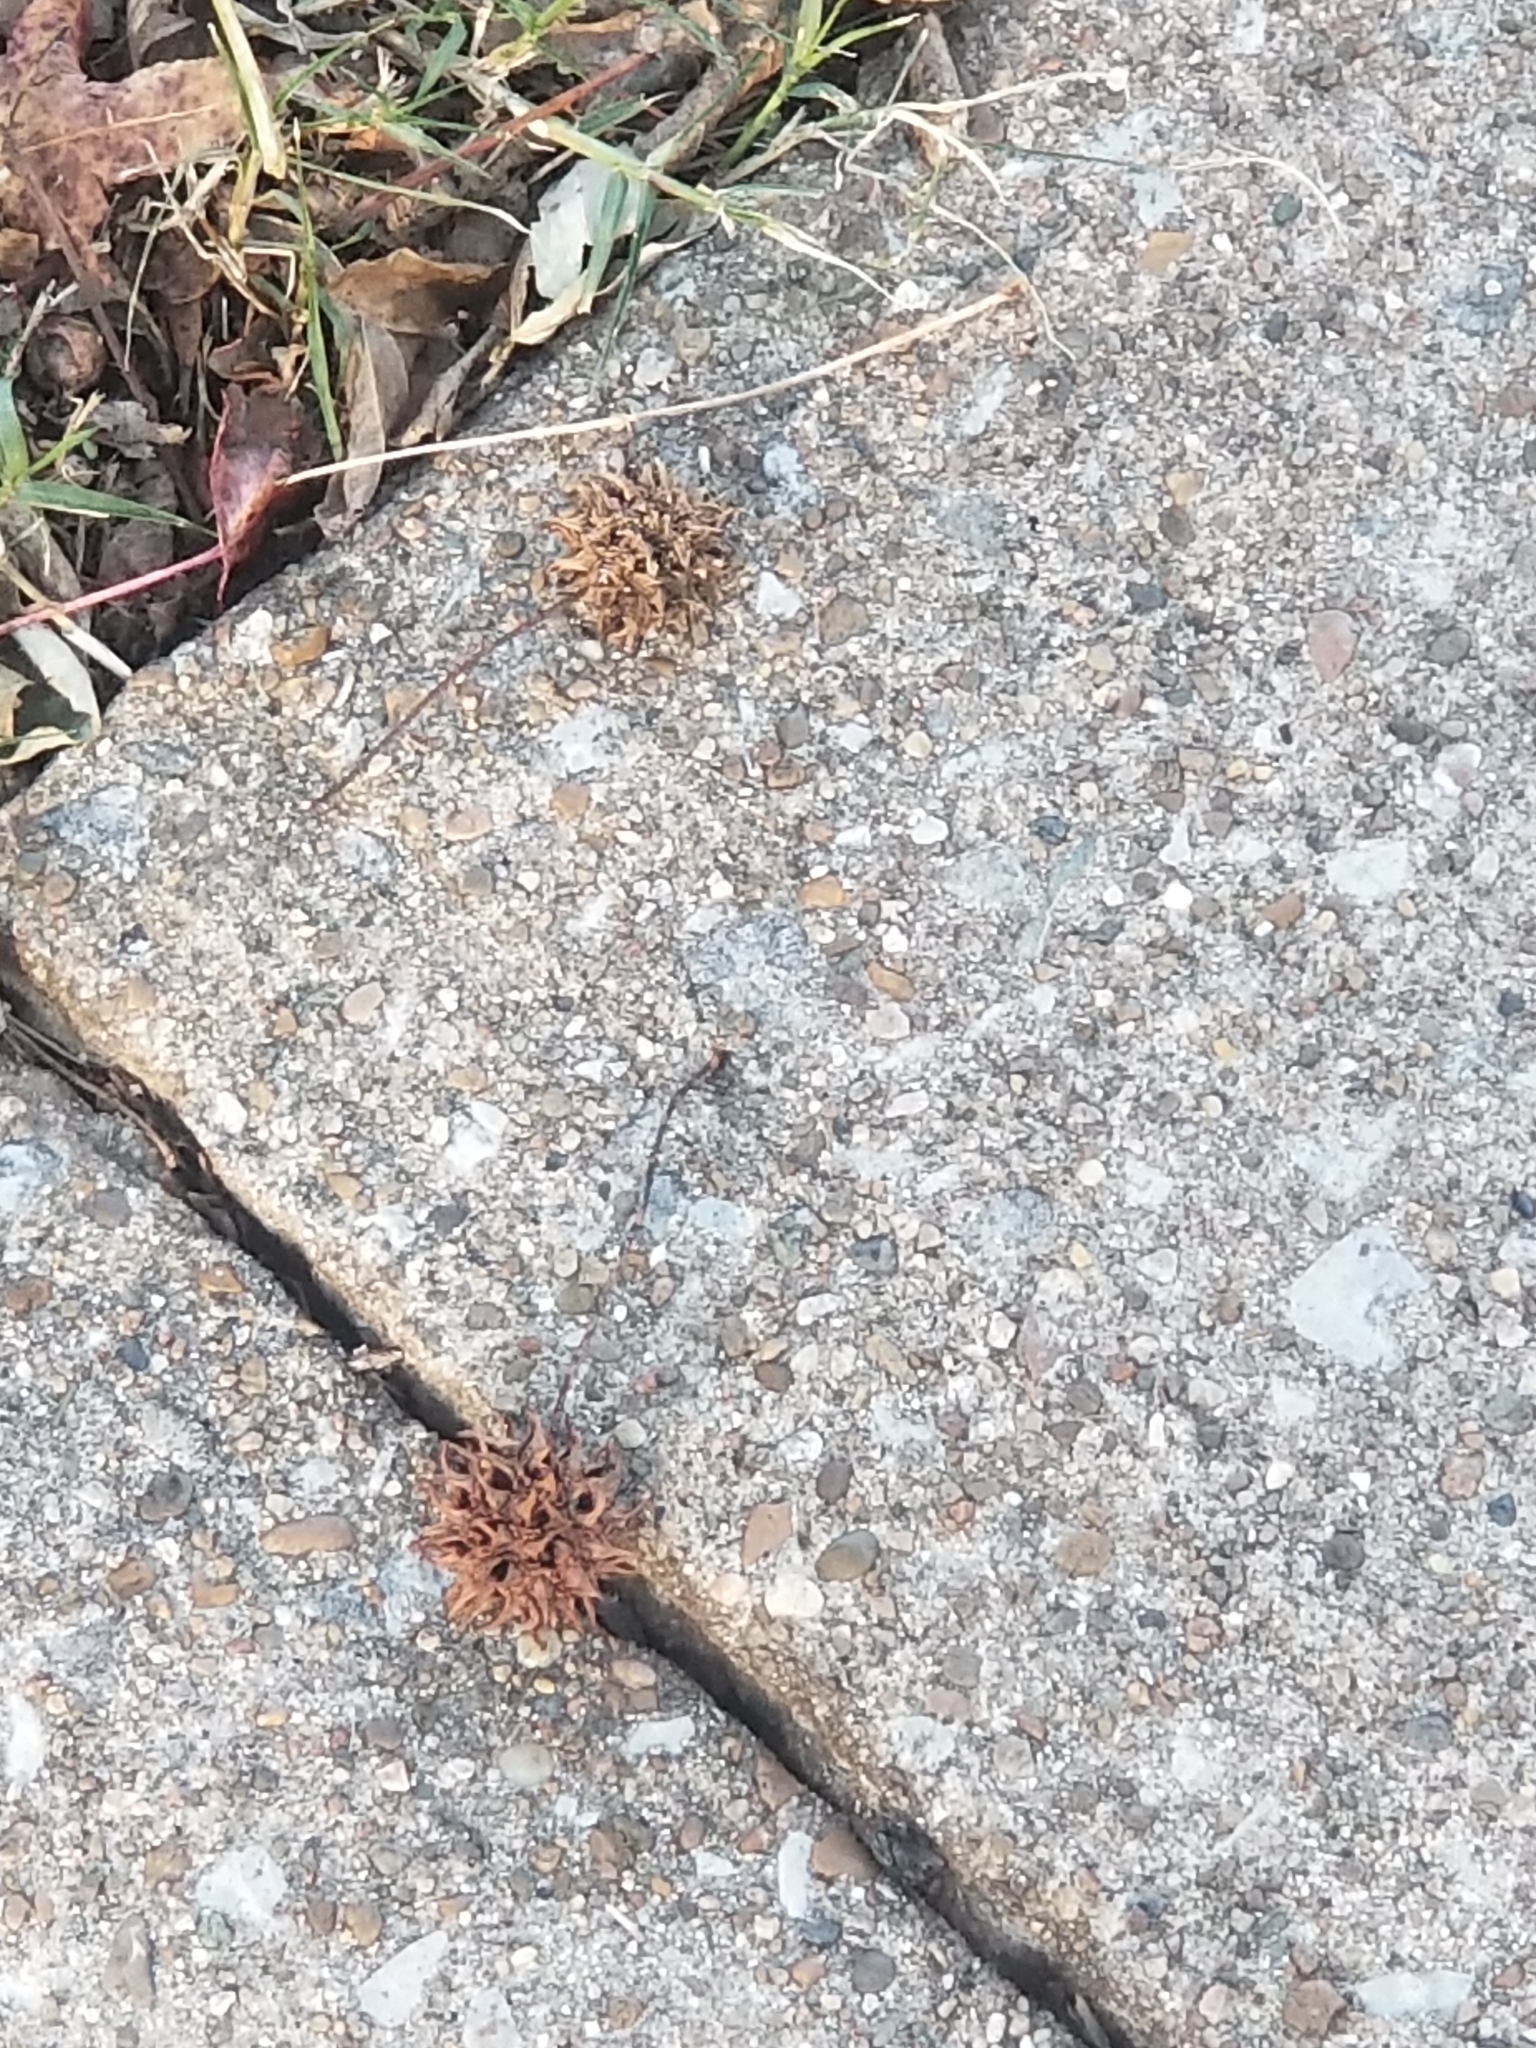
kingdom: Plantae
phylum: Tracheophyta
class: Magnoliopsida
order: Saxifragales
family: Altingiaceae
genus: Liquidambar
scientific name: Liquidambar styraciflua
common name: Sweet gum
